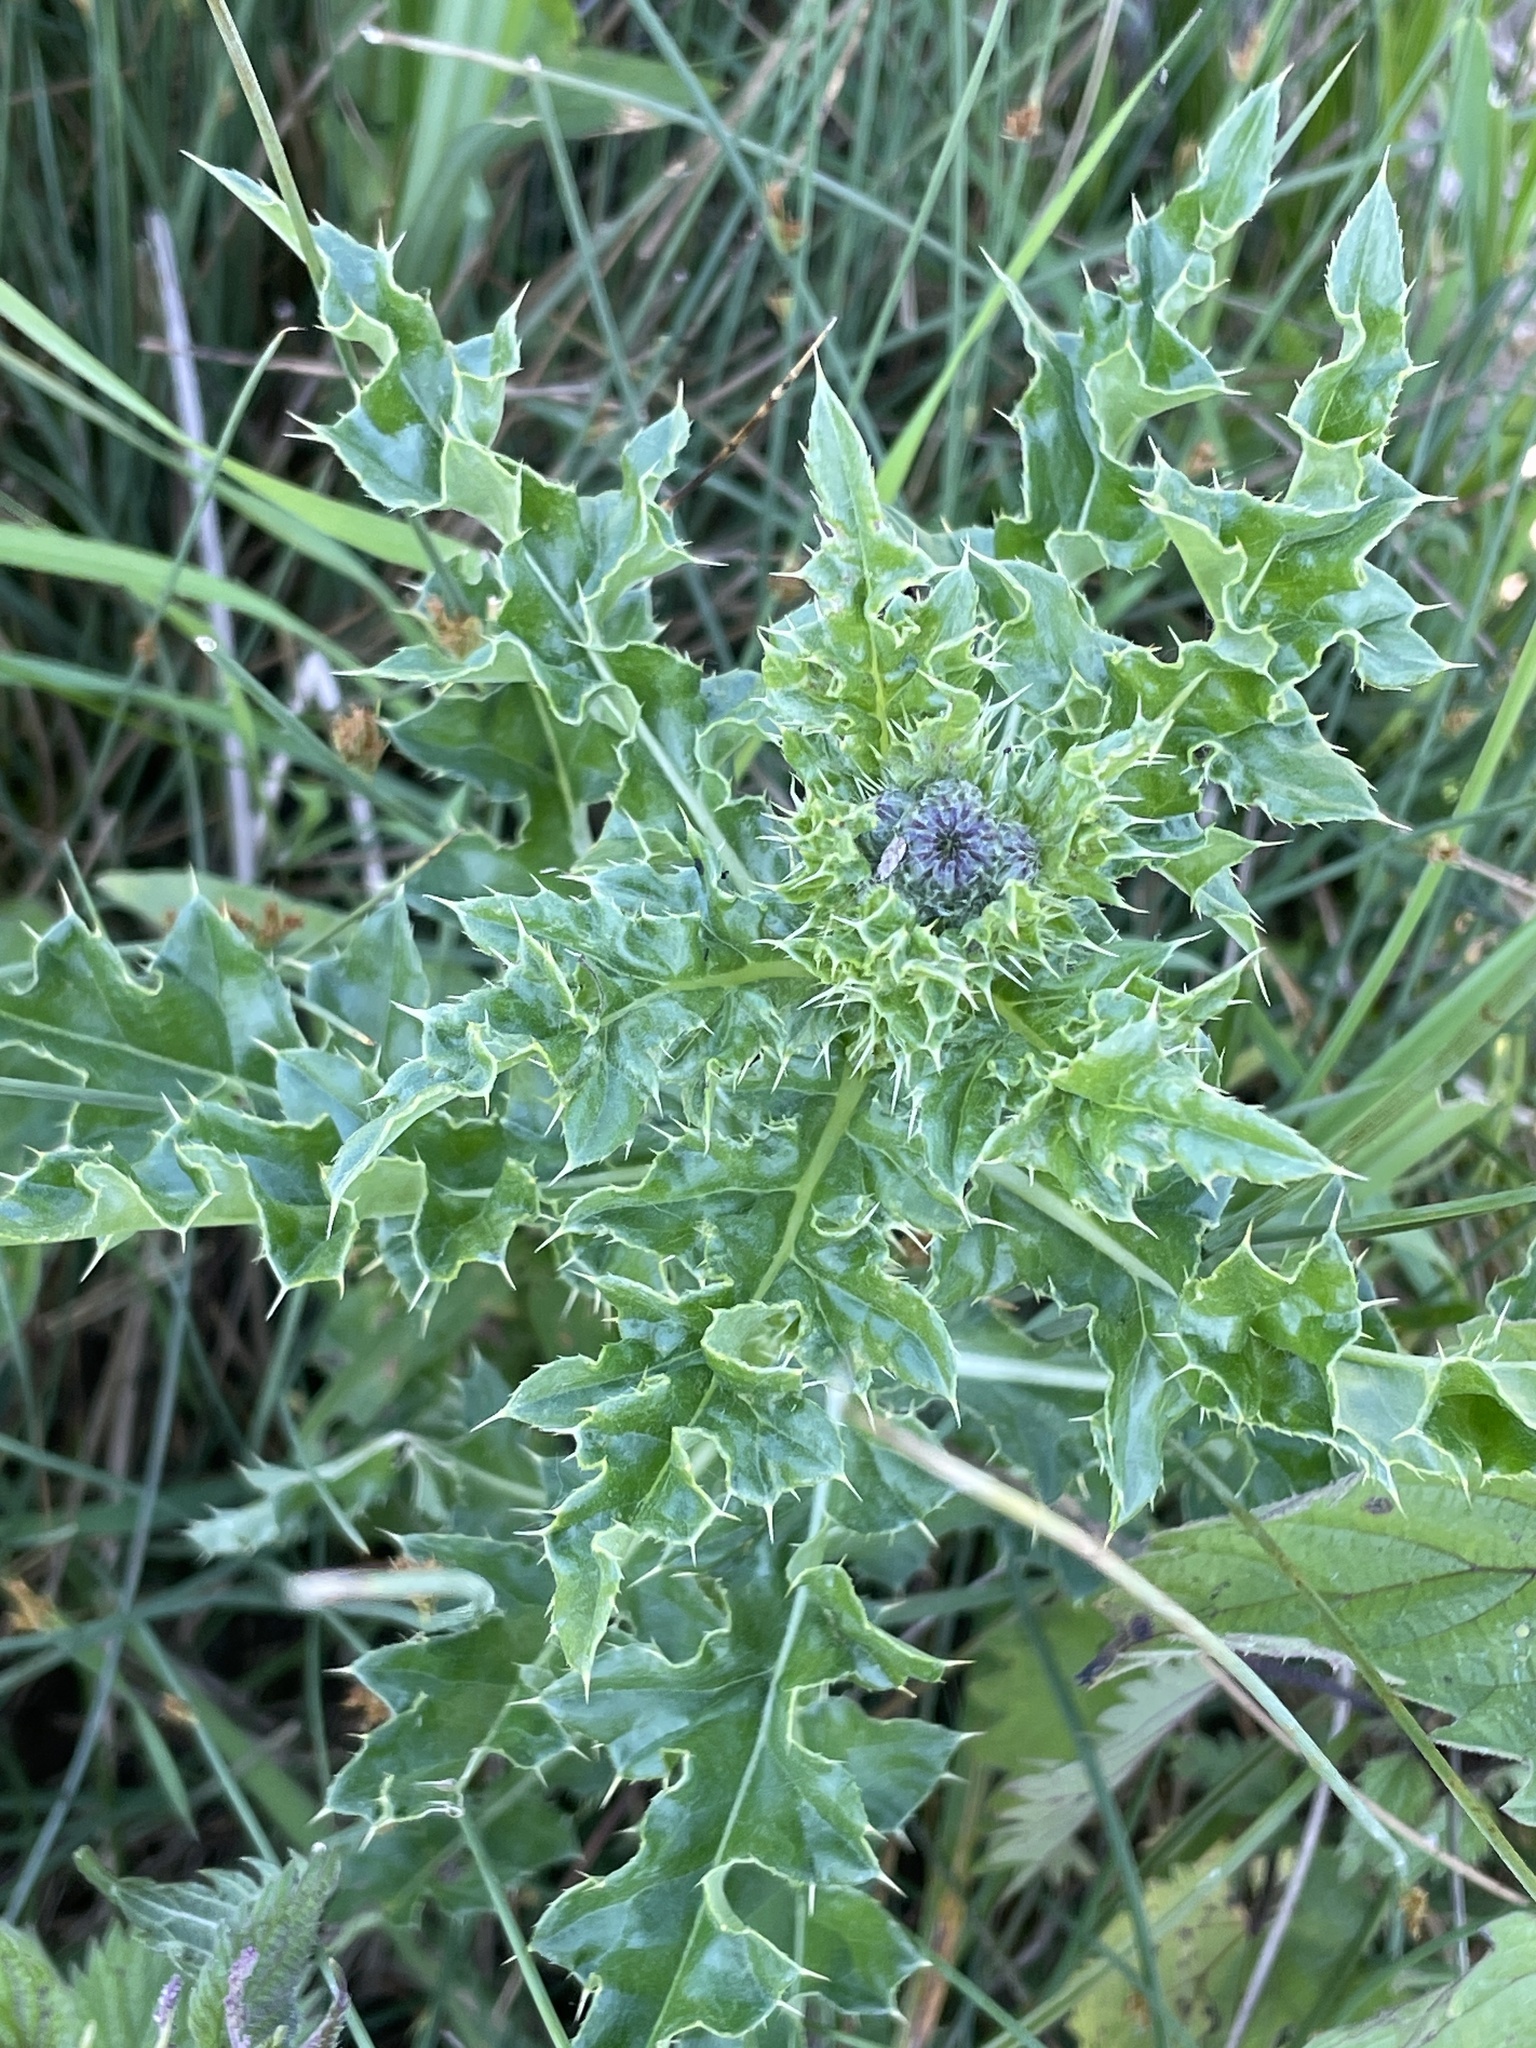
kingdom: Plantae
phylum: Tracheophyta
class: Magnoliopsida
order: Asterales
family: Asteraceae
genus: Cirsium
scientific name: Cirsium arvense
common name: Creeping thistle
